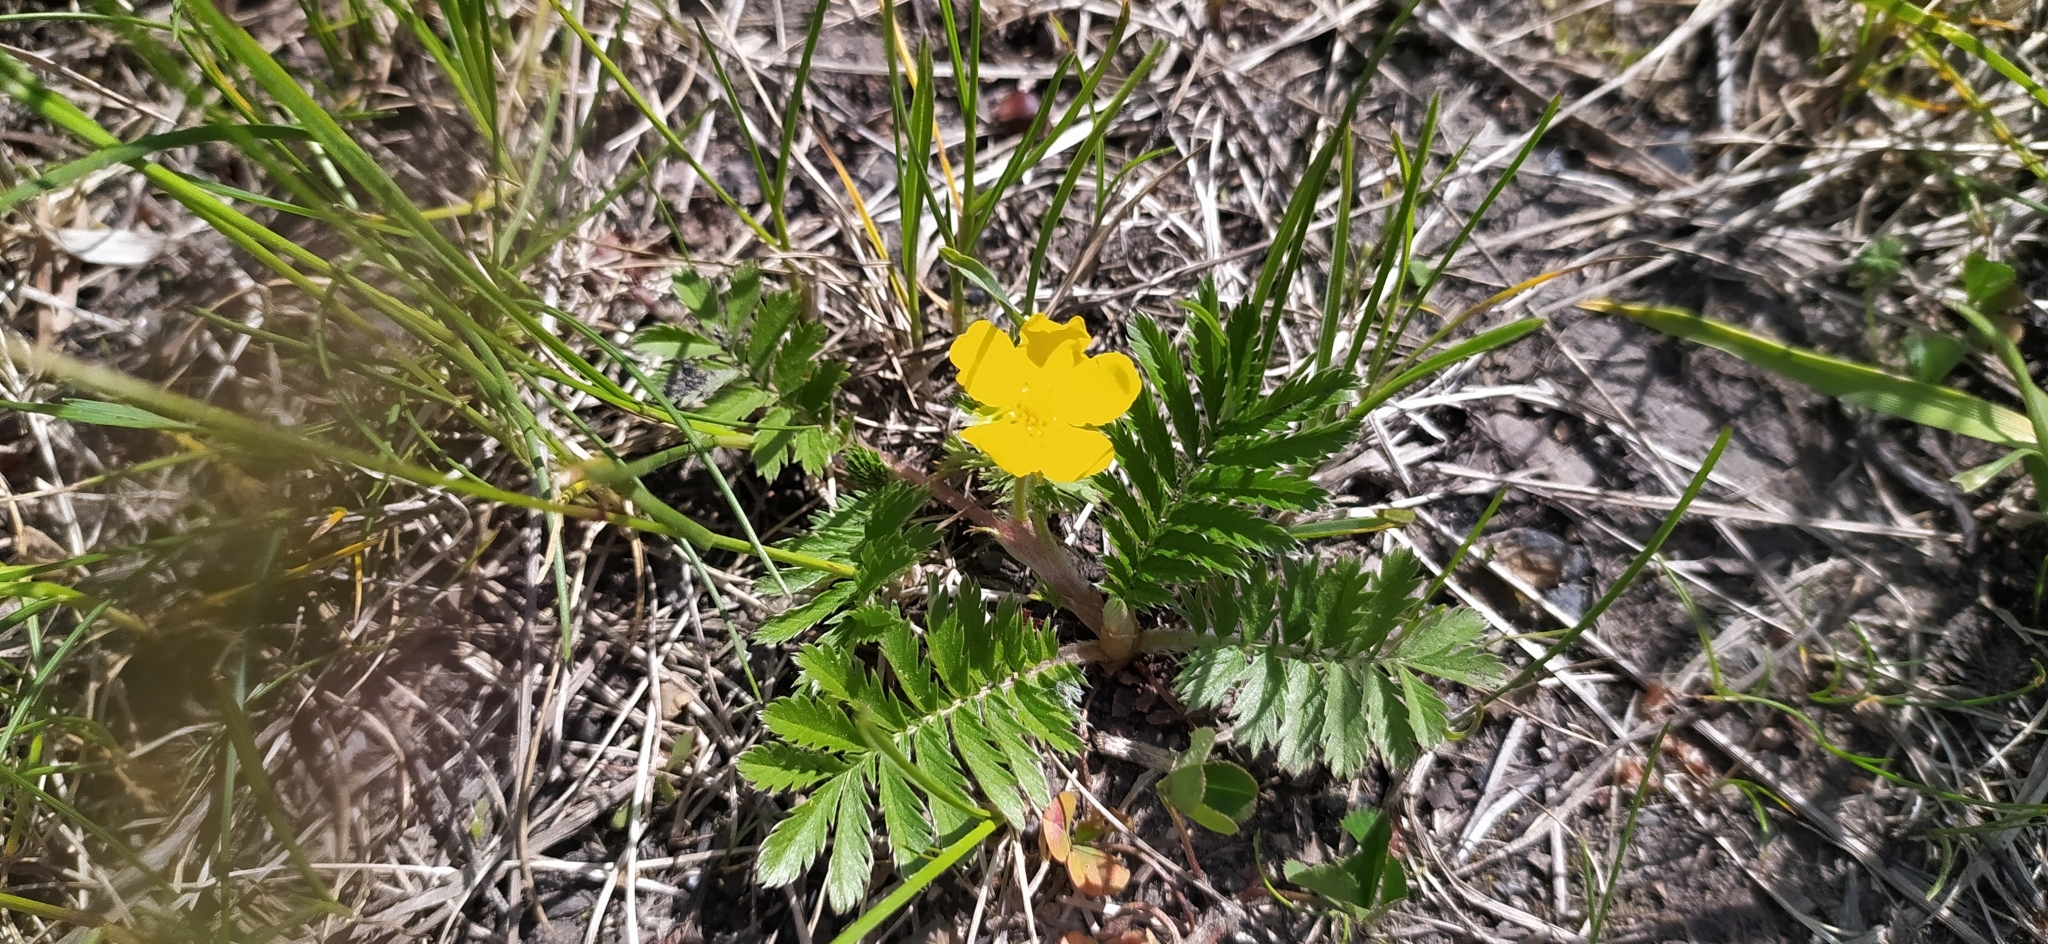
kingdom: Plantae
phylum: Tracheophyta
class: Magnoliopsida
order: Rosales
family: Rosaceae
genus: Argentina
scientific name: Argentina anserina
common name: Common silverweed
